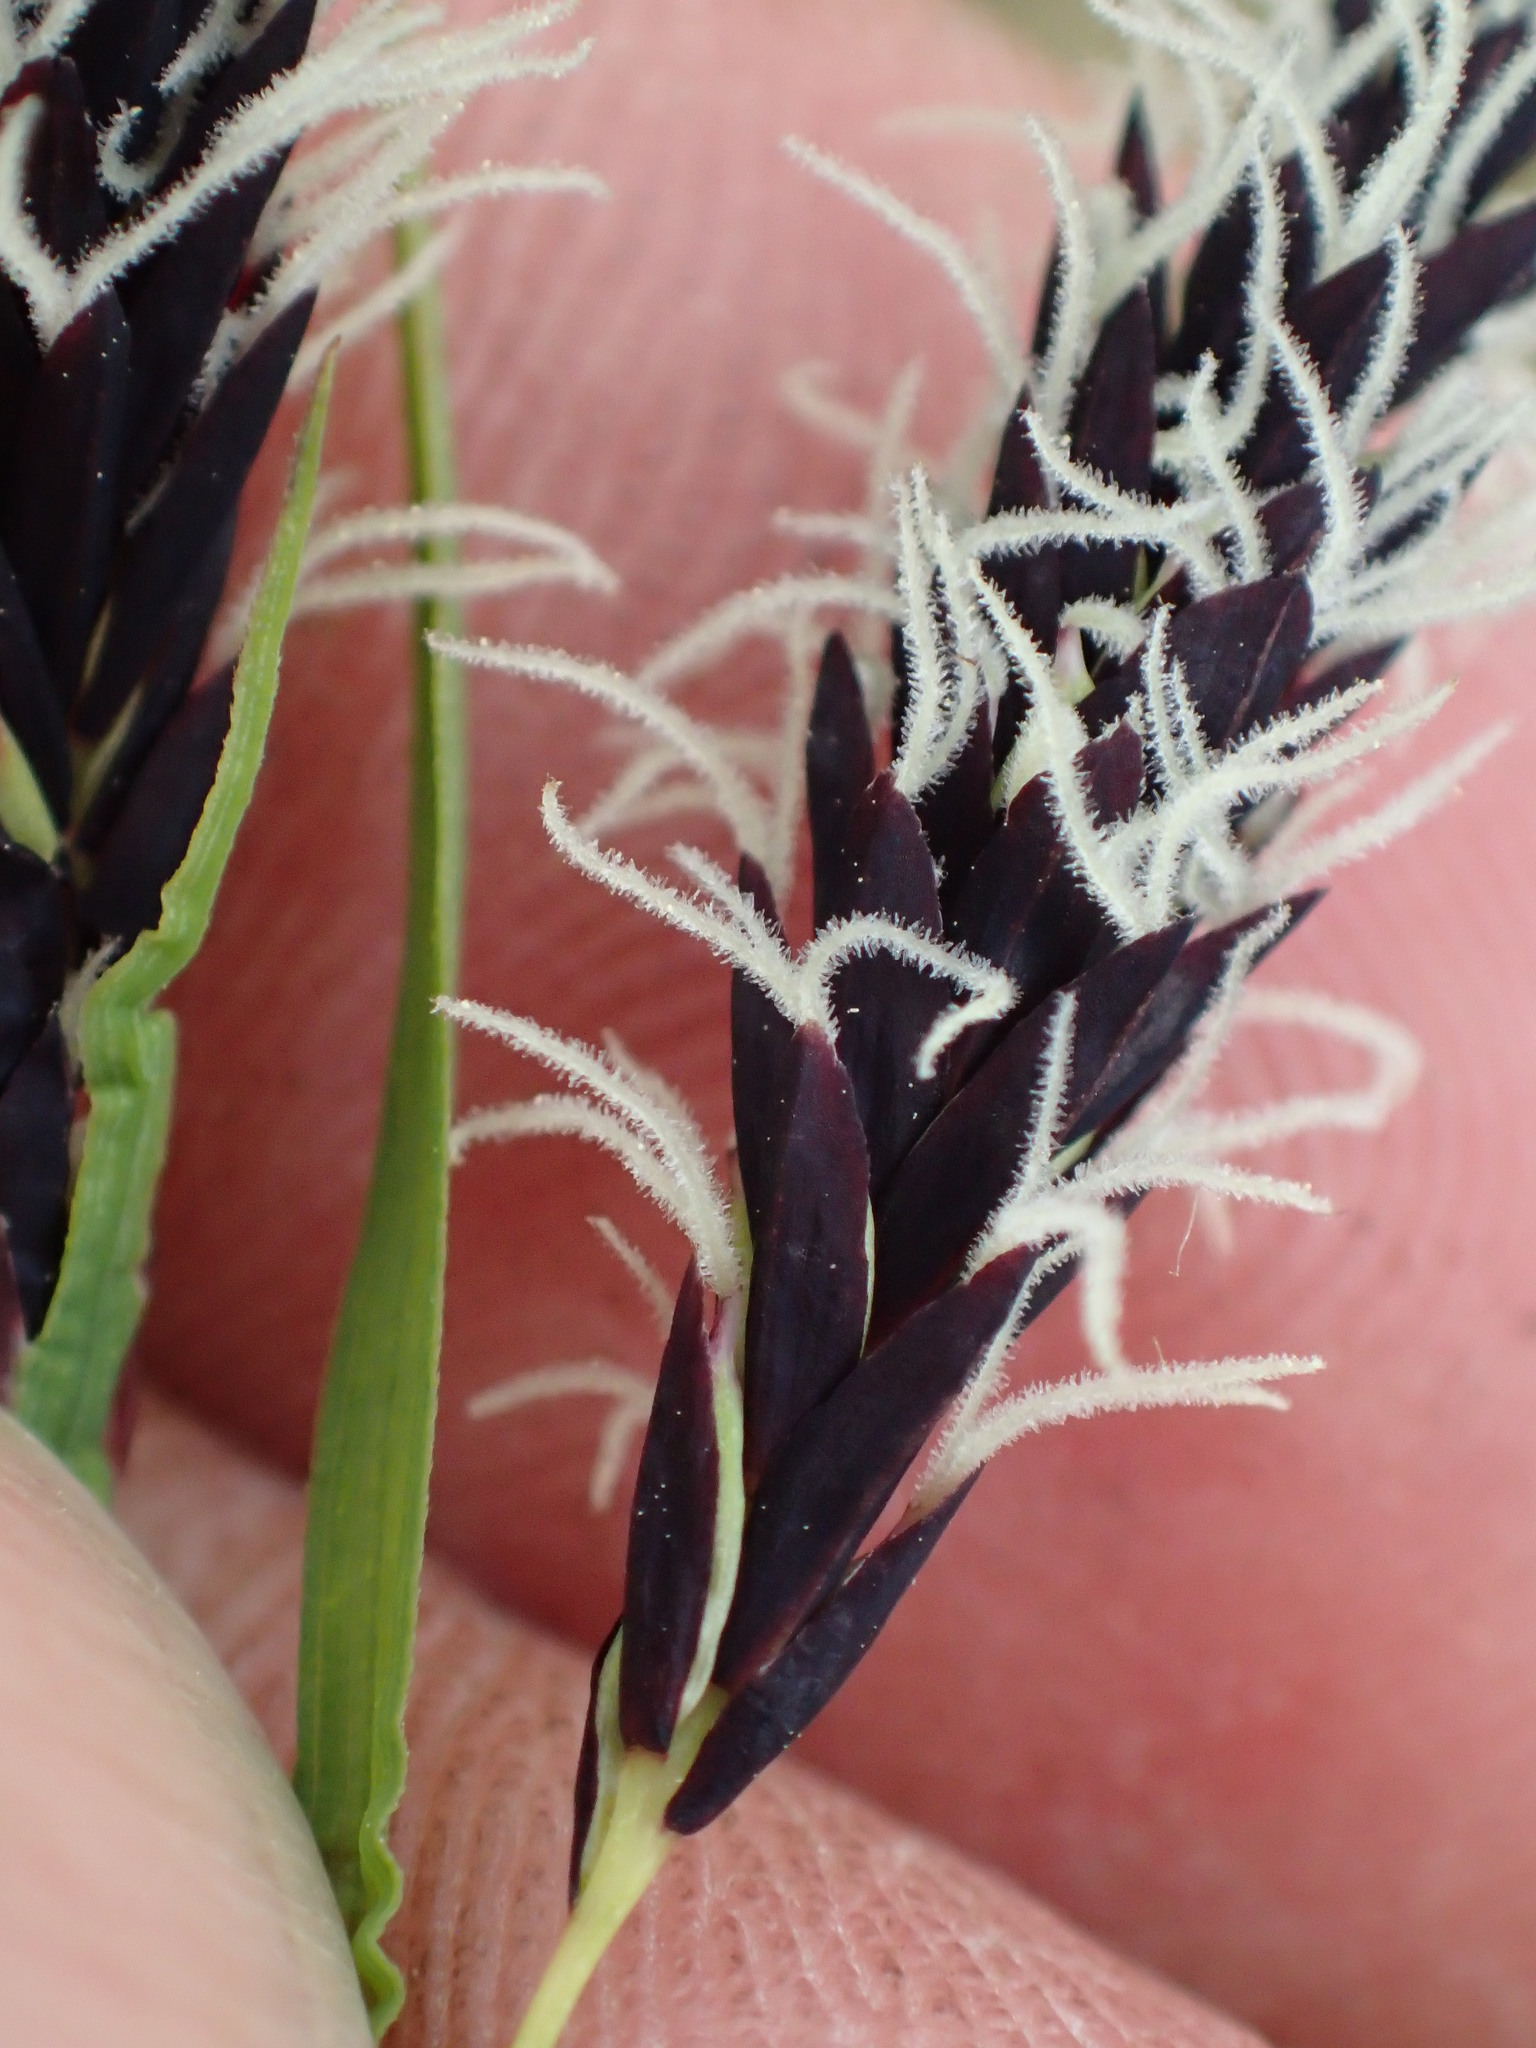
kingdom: Plantae
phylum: Tracheophyta
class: Liliopsida
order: Poales
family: Cyperaceae
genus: Carex
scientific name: Carex podocarpa
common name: Alpine sedge
